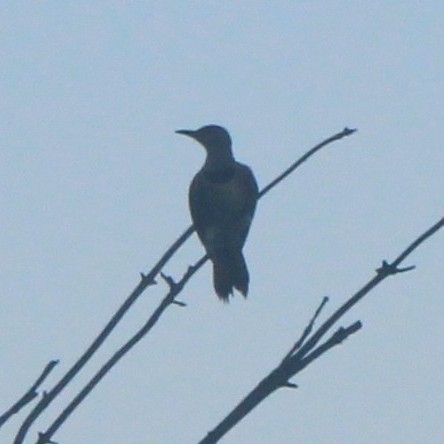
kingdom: Animalia
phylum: Chordata
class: Aves
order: Piciformes
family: Picidae
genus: Colaptes
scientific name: Colaptes auratus
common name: Northern flicker
